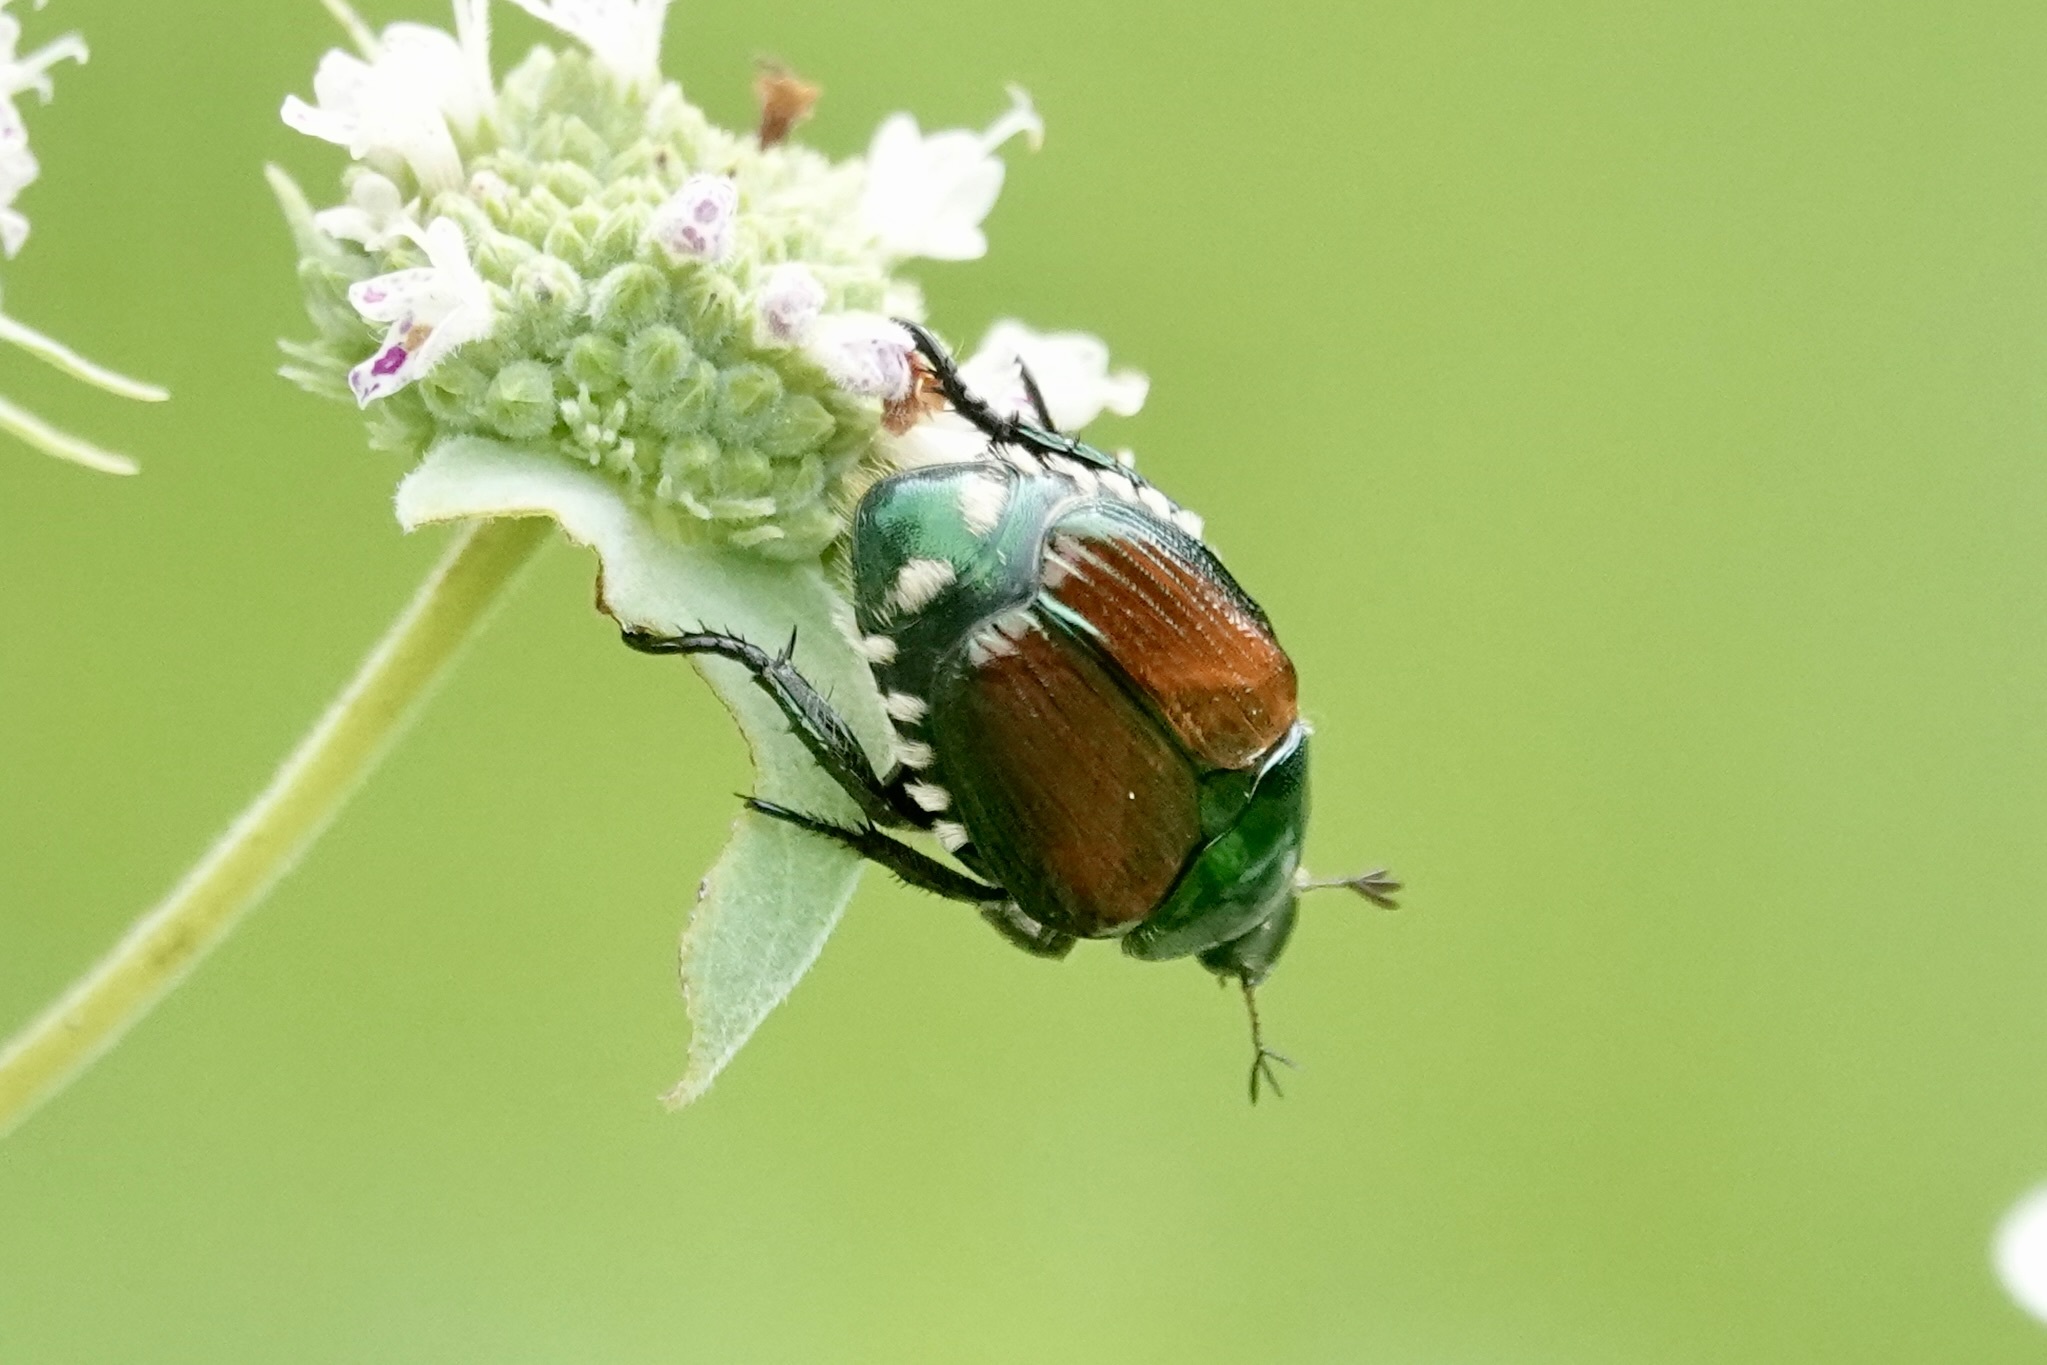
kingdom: Animalia
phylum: Arthropoda
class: Insecta
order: Coleoptera
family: Scarabaeidae
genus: Popillia
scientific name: Popillia japonica
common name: Japanese beetle
